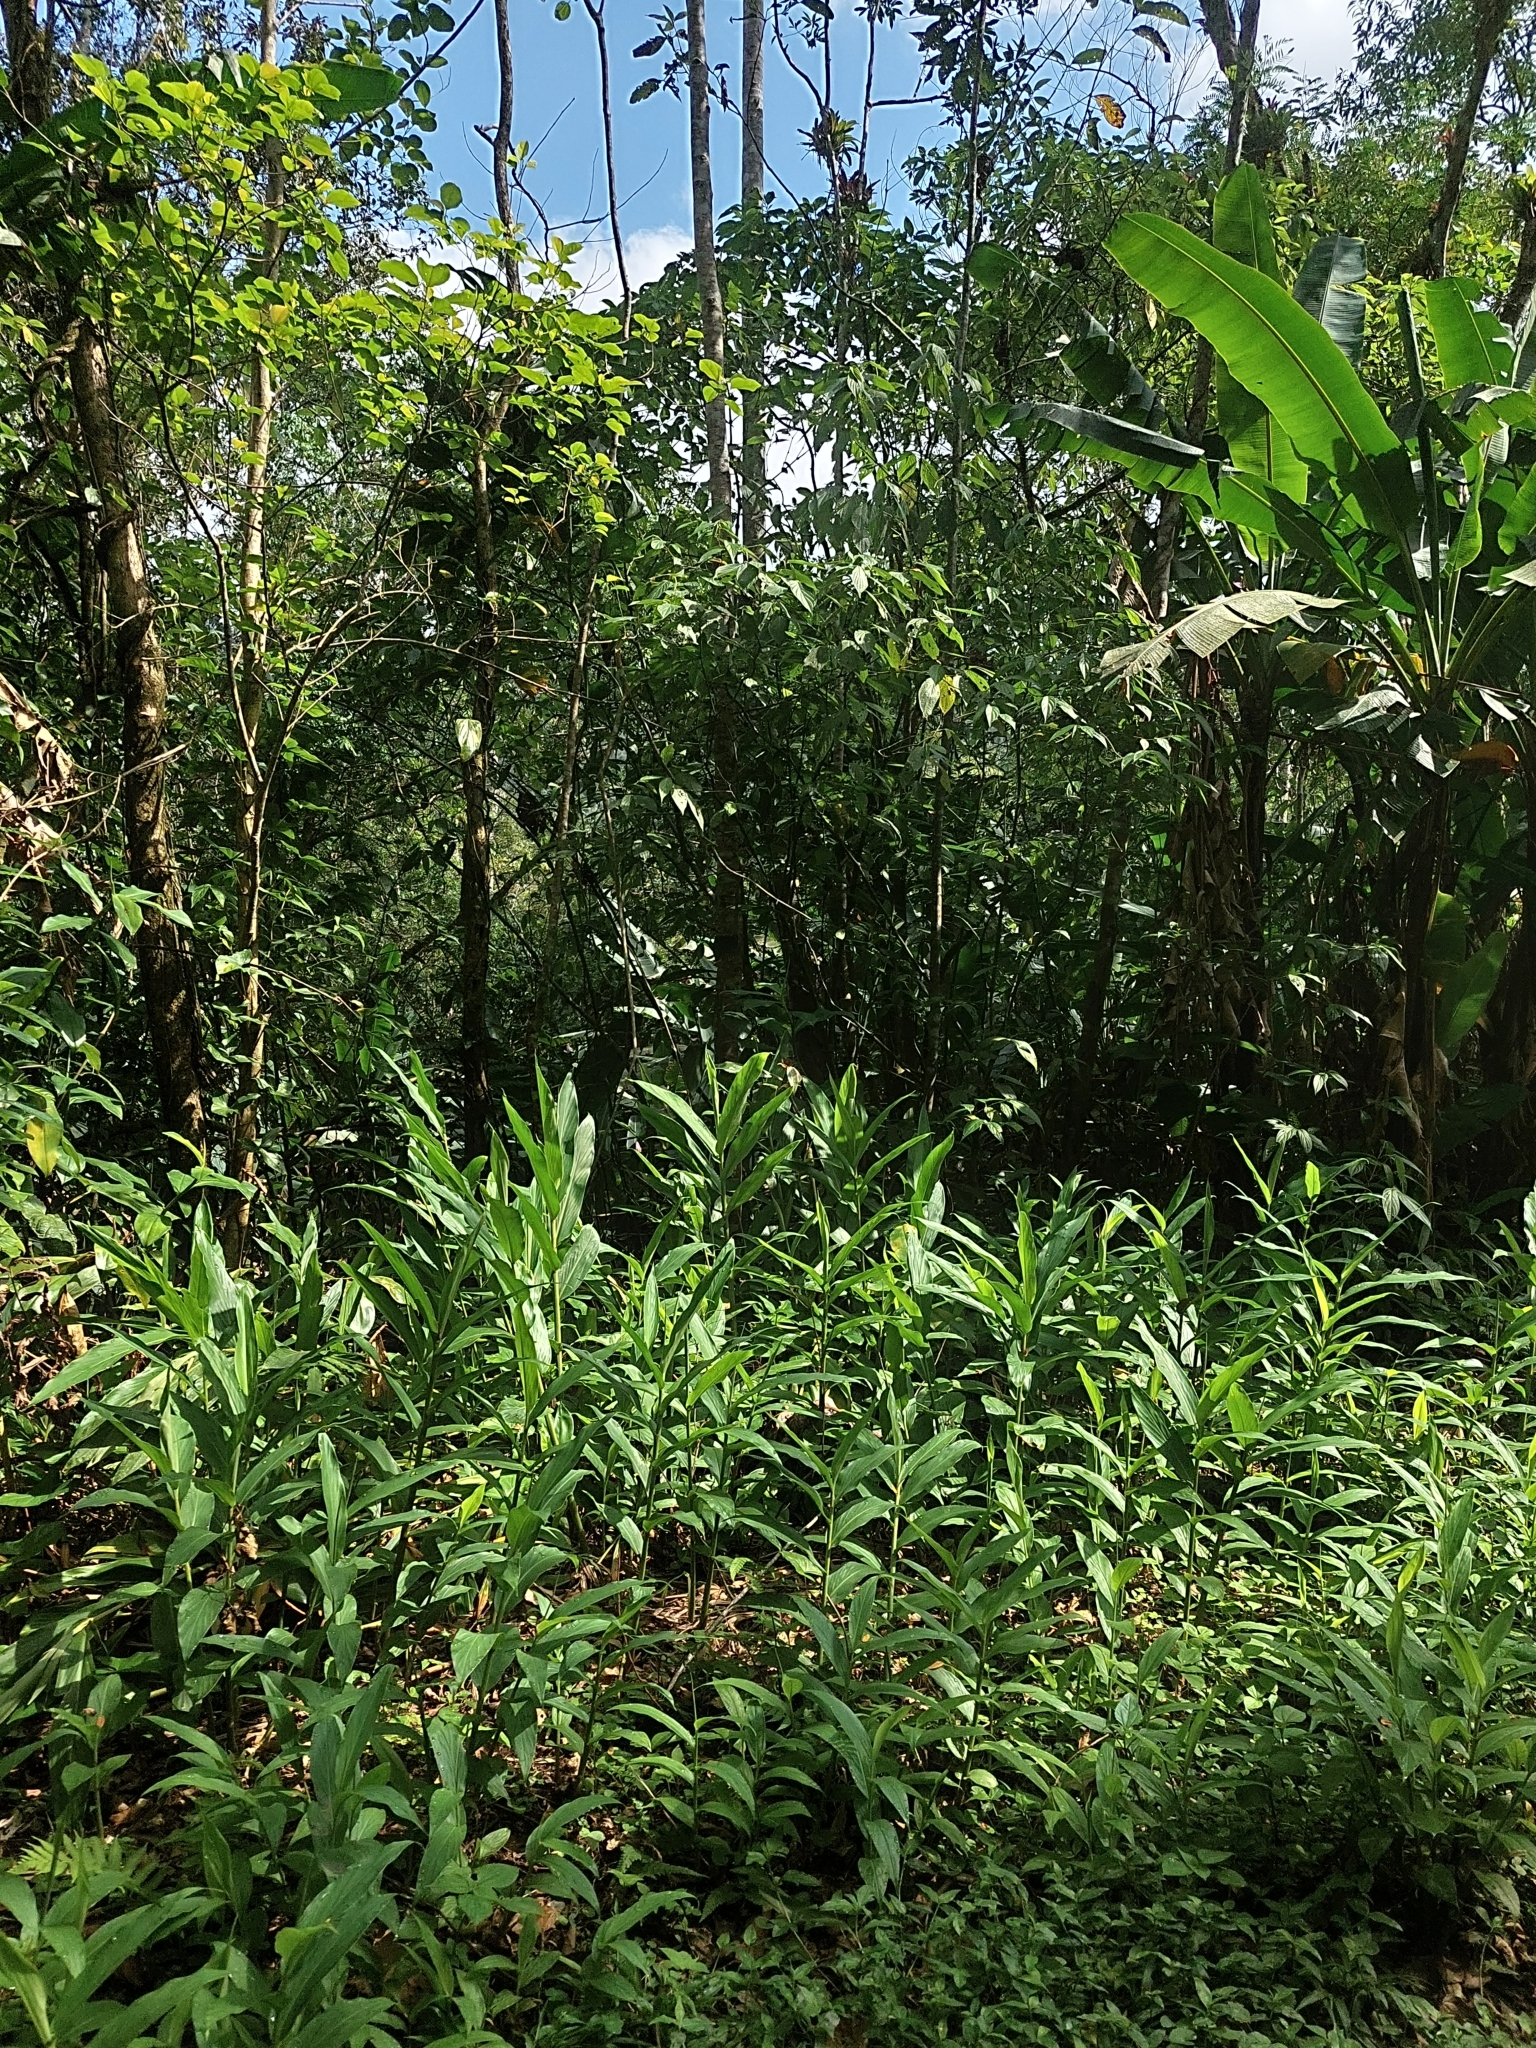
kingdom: Plantae
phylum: Tracheophyta
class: Liliopsida
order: Zingiberales
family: Zingiberaceae
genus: Hedychium
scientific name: Hedychium coronarium
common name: White garland-lily
